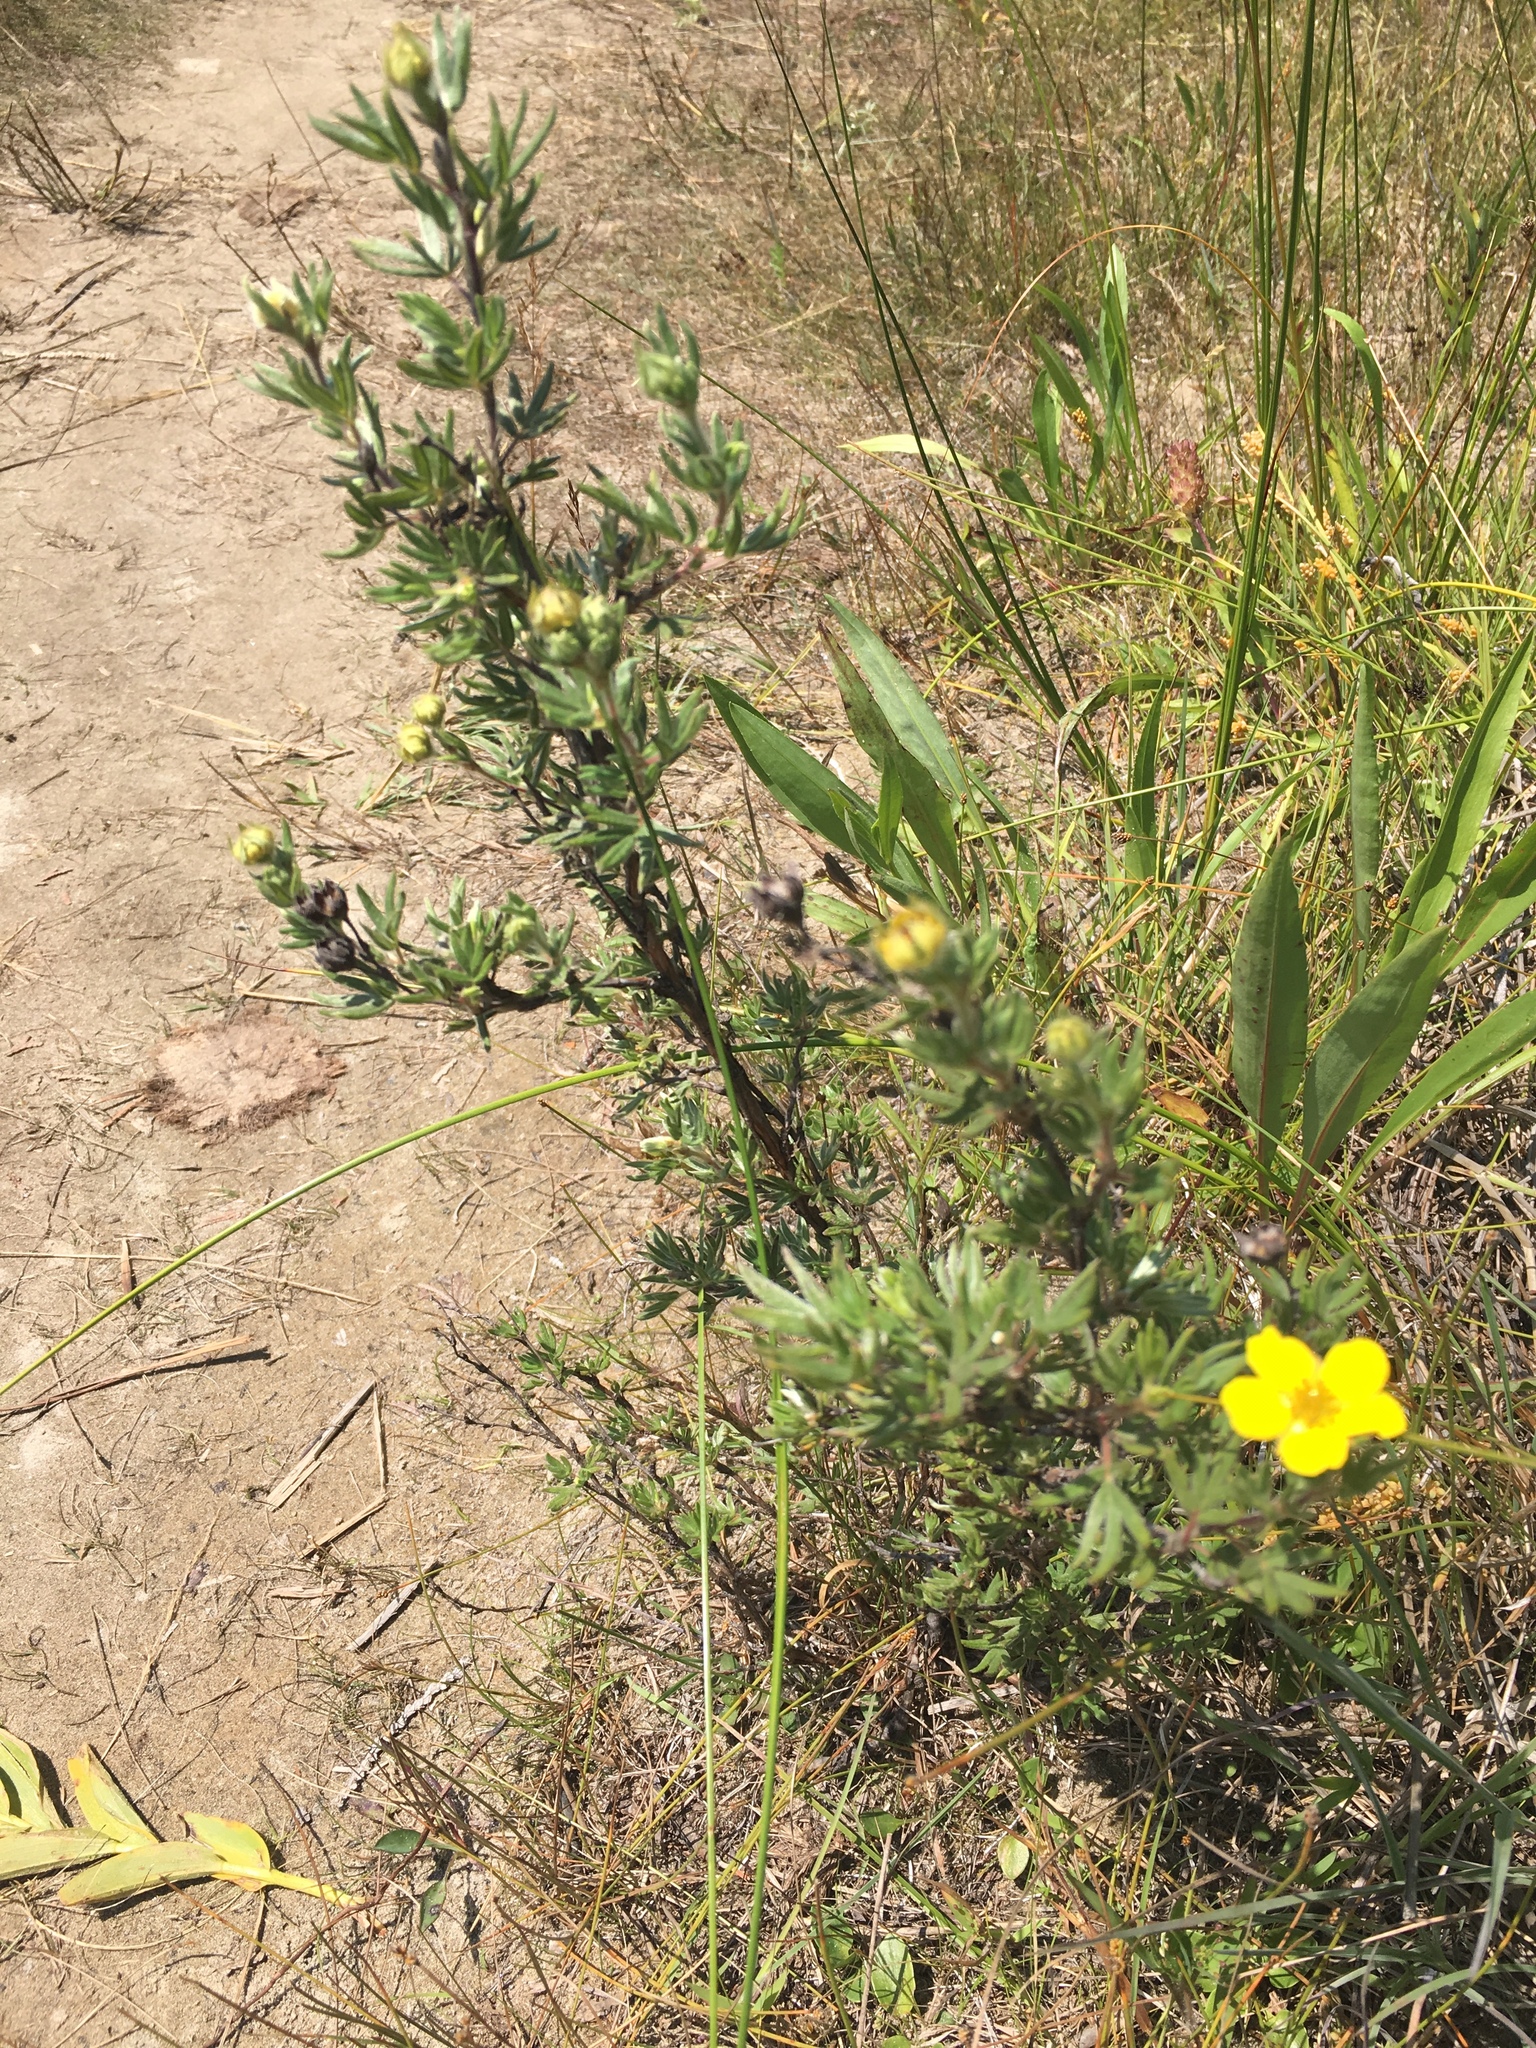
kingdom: Plantae
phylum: Tracheophyta
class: Magnoliopsida
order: Rosales
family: Rosaceae
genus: Dasiphora
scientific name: Dasiphora fruticosa
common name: Shrubby cinquefoil
